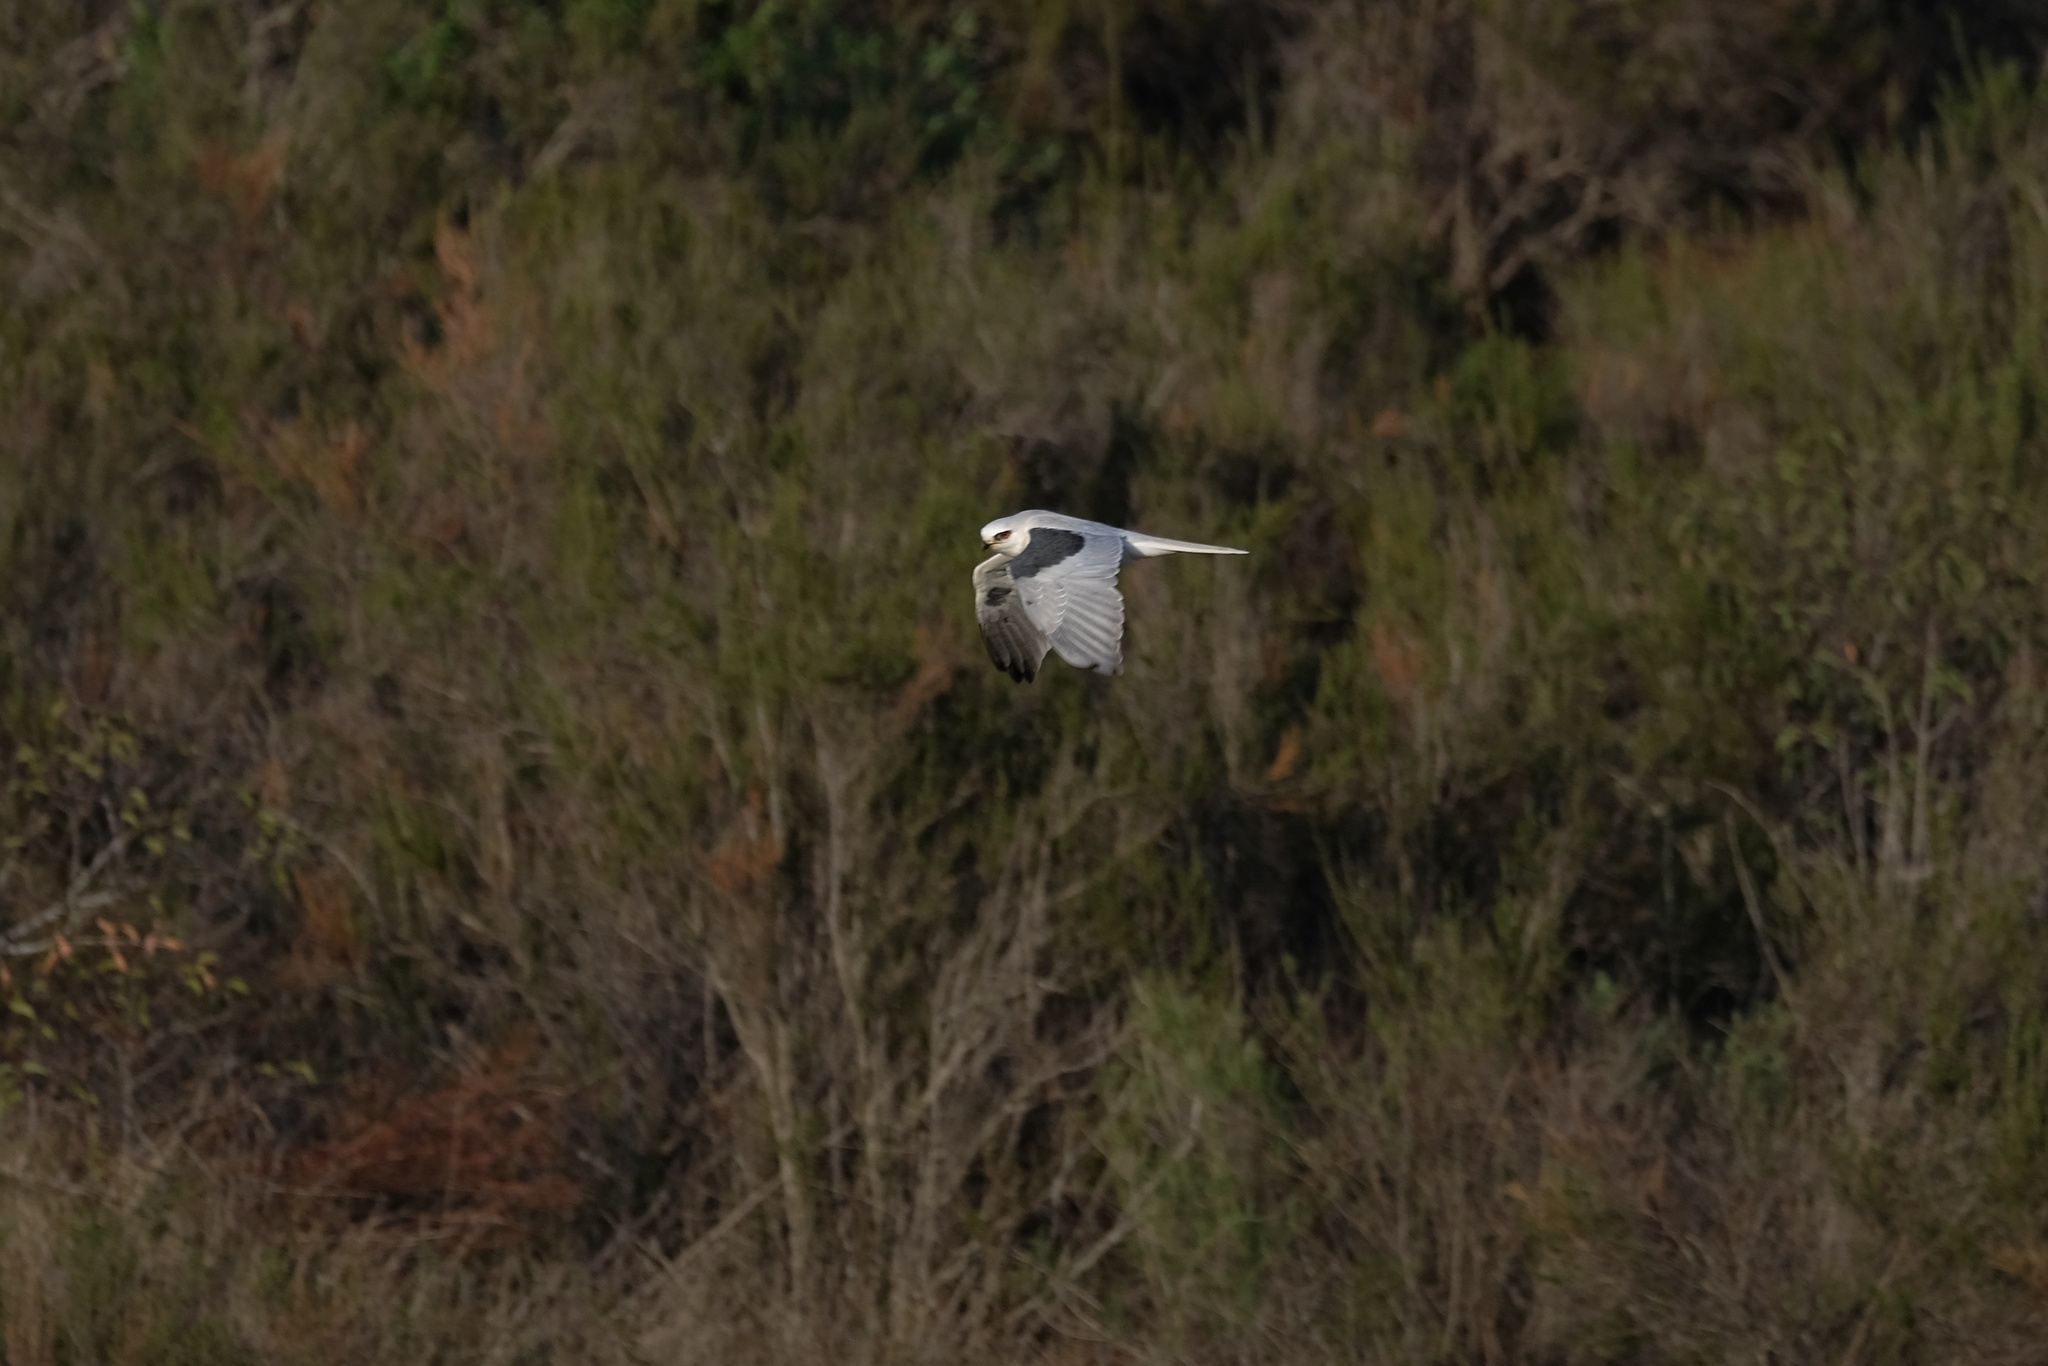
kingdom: Animalia
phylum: Chordata
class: Aves
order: Accipitriformes
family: Accipitridae
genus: Elanus
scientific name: Elanus leucurus
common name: White-tailed kite
